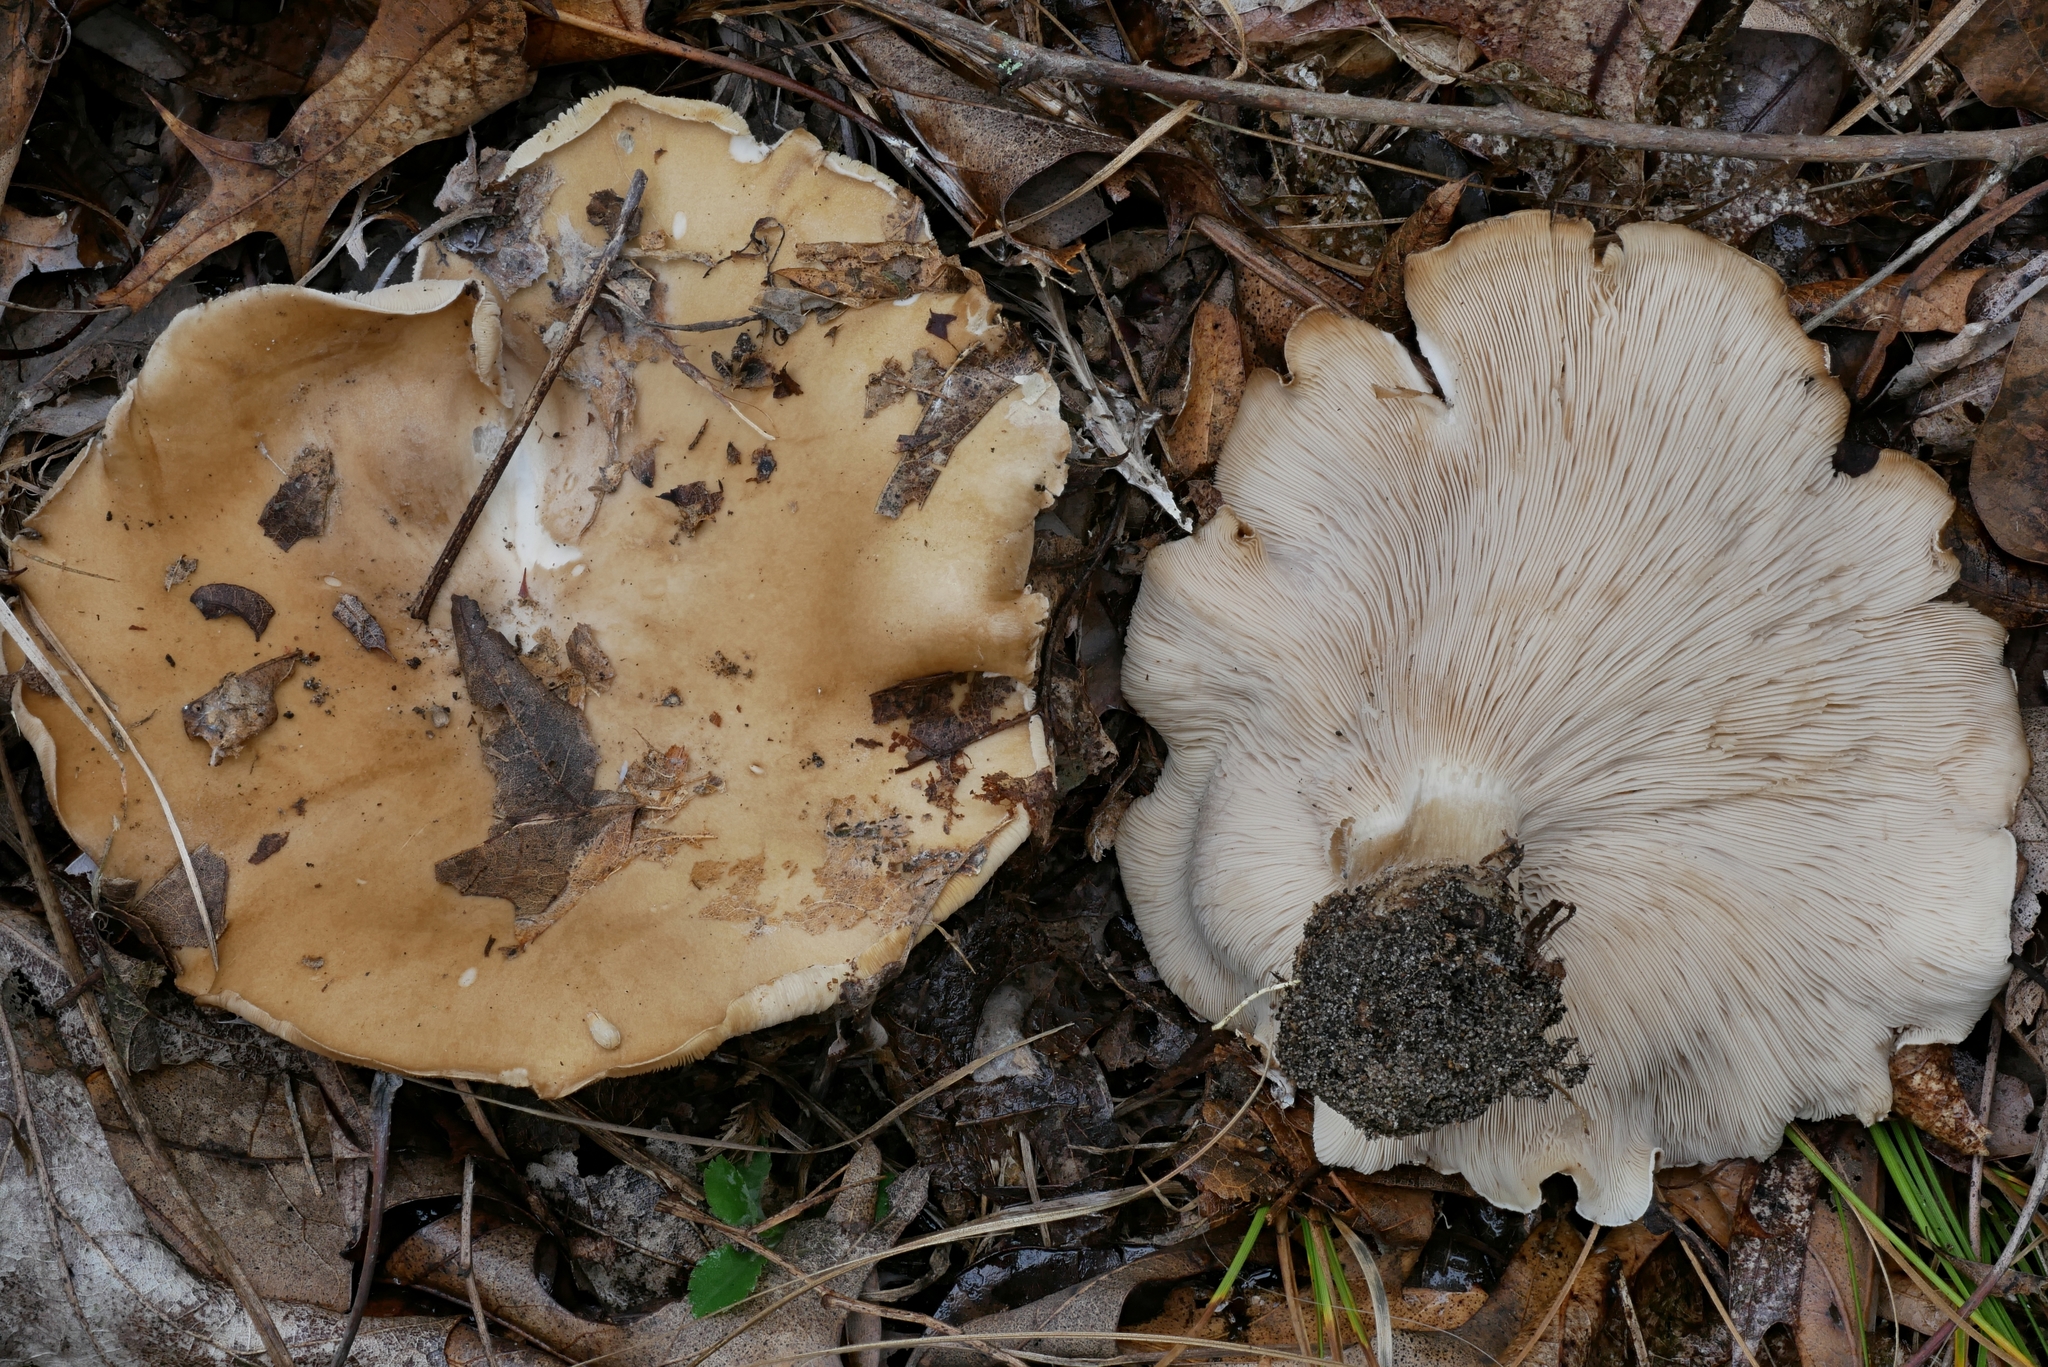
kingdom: Fungi
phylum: Basidiomycota
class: Agaricomycetes
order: Agaricales
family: Pseudoclitocybaceae
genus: Harmajaea
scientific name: Harmajaea harperi
